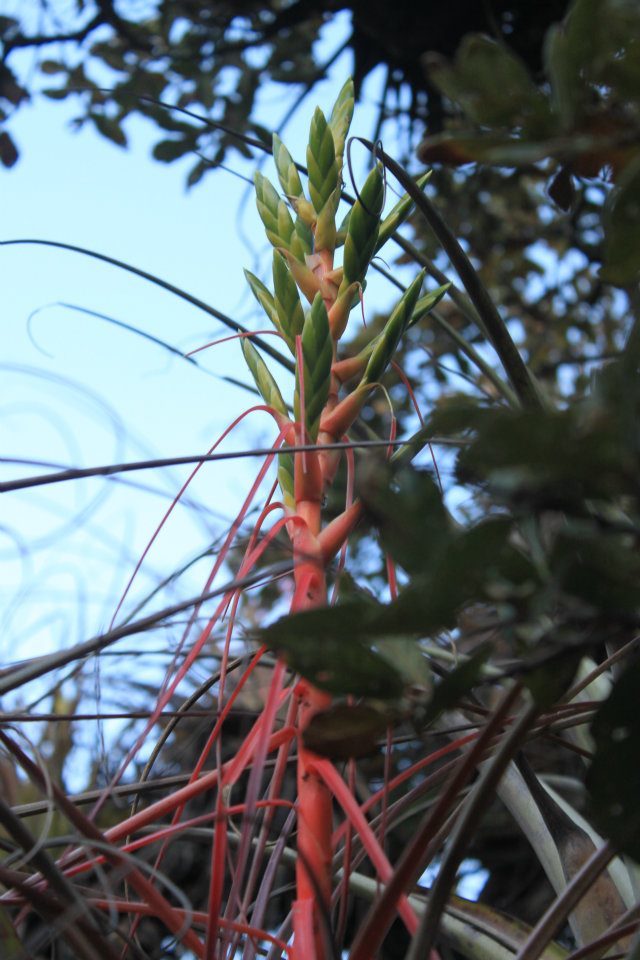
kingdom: Plantae
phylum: Tracheophyta
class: Liliopsida
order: Poales
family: Bromeliaceae
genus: Tillandsia
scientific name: Tillandsia calothyrsus
